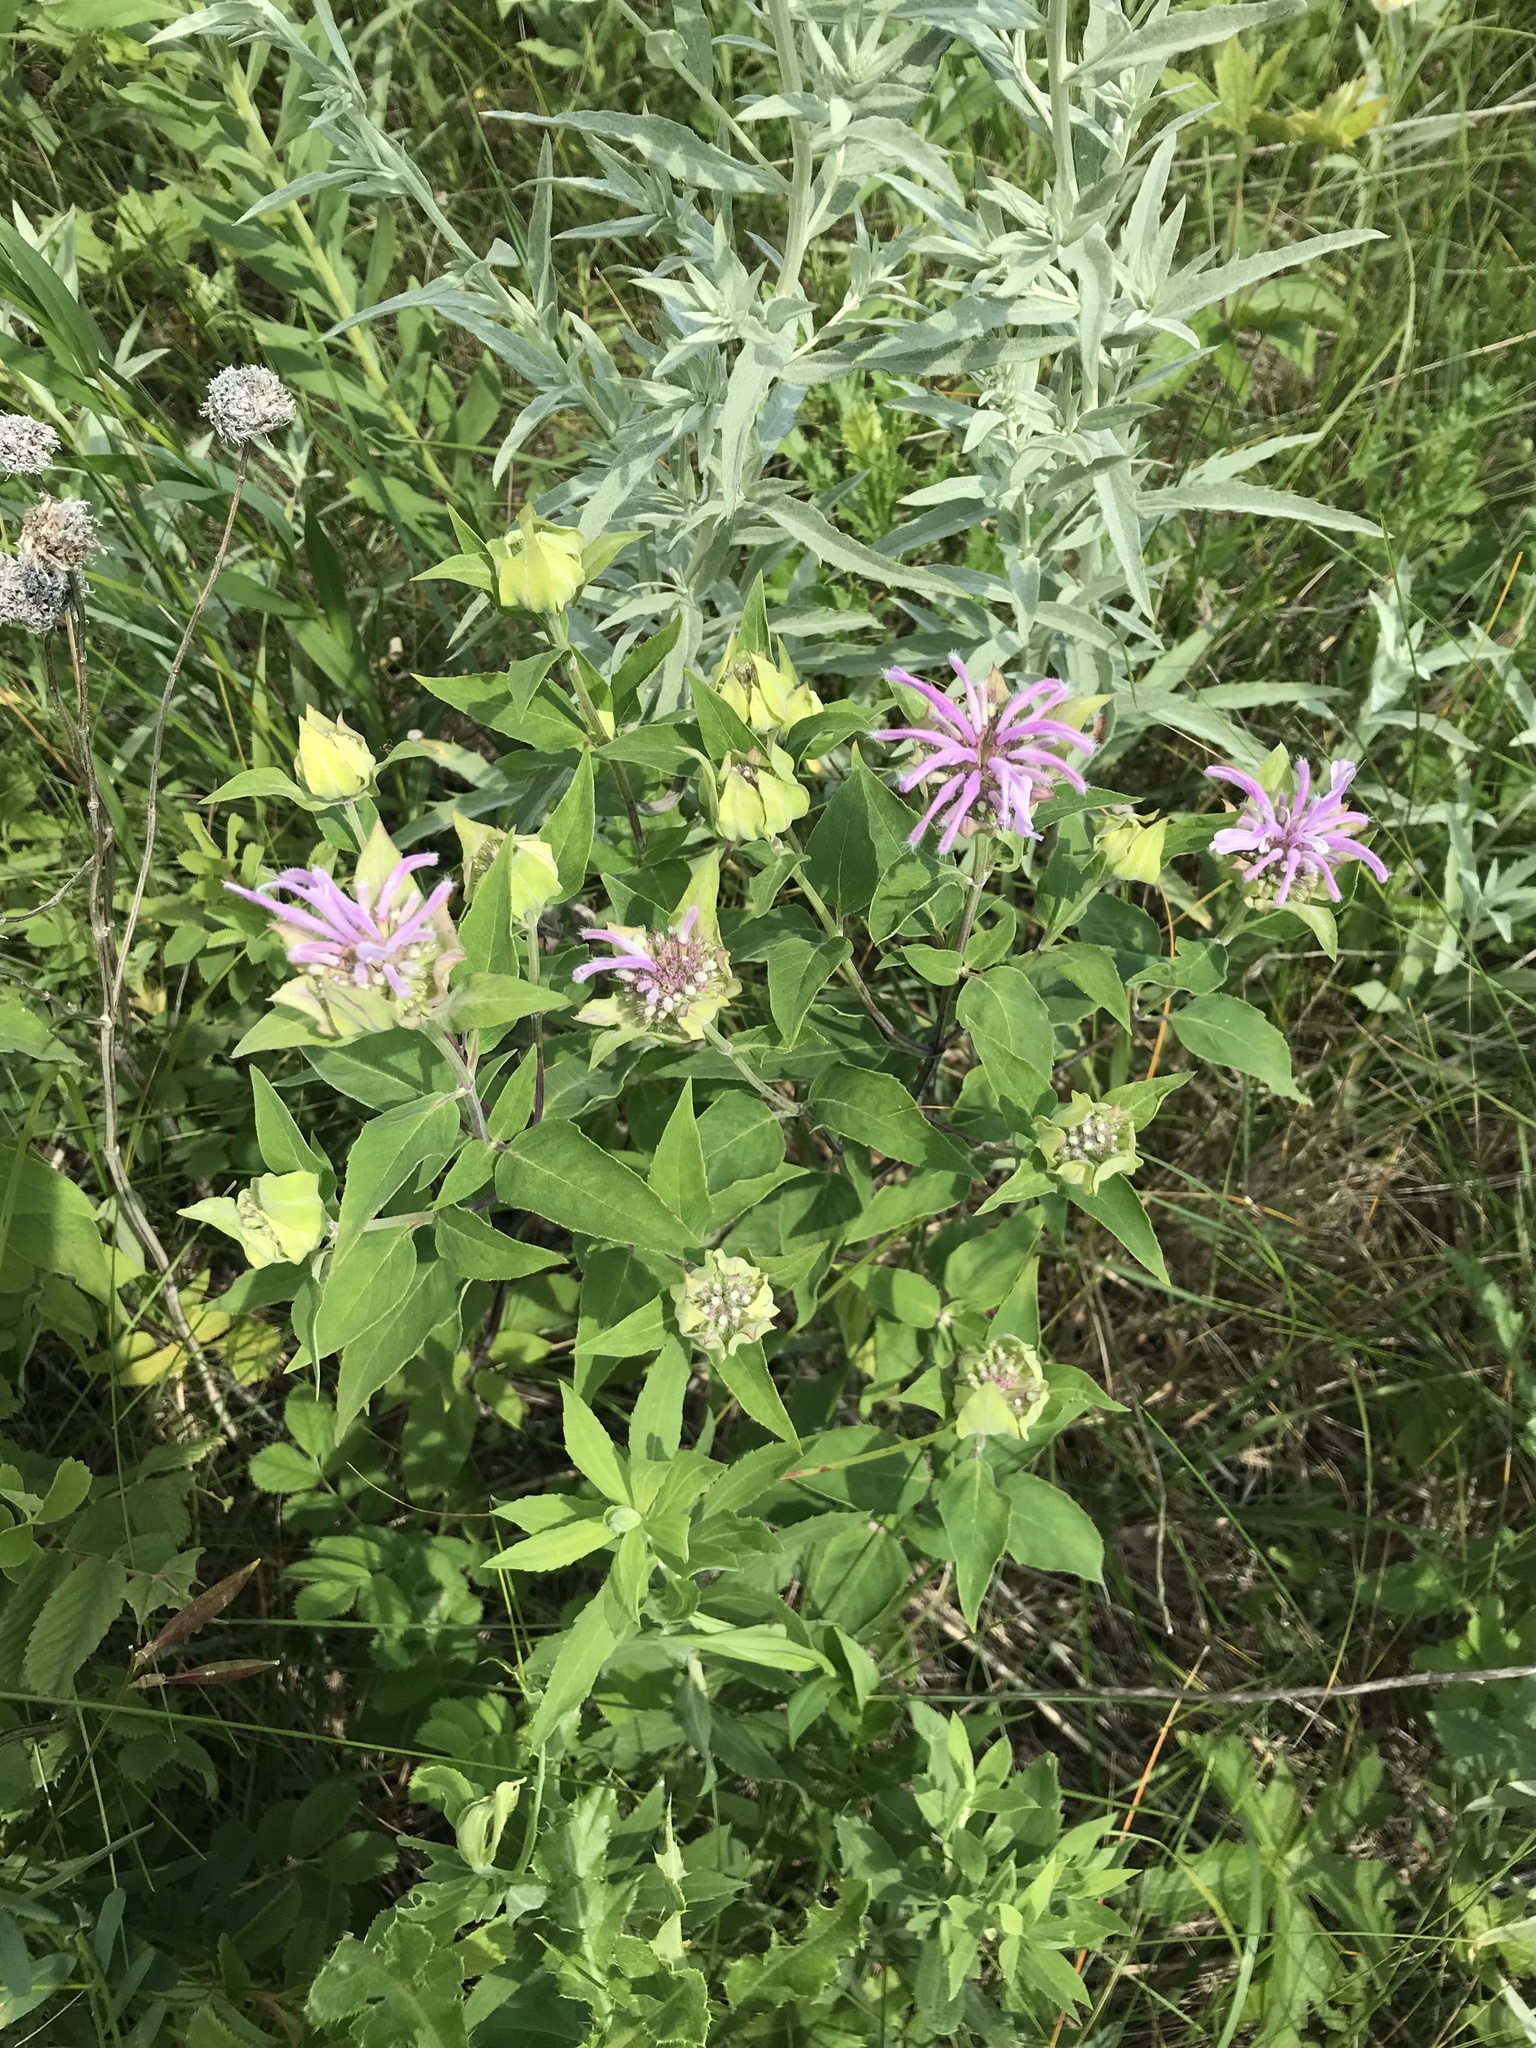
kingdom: Plantae
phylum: Tracheophyta
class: Magnoliopsida
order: Lamiales
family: Lamiaceae
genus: Monarda
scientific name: Monarda fistulosa
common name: Purple beebalm
